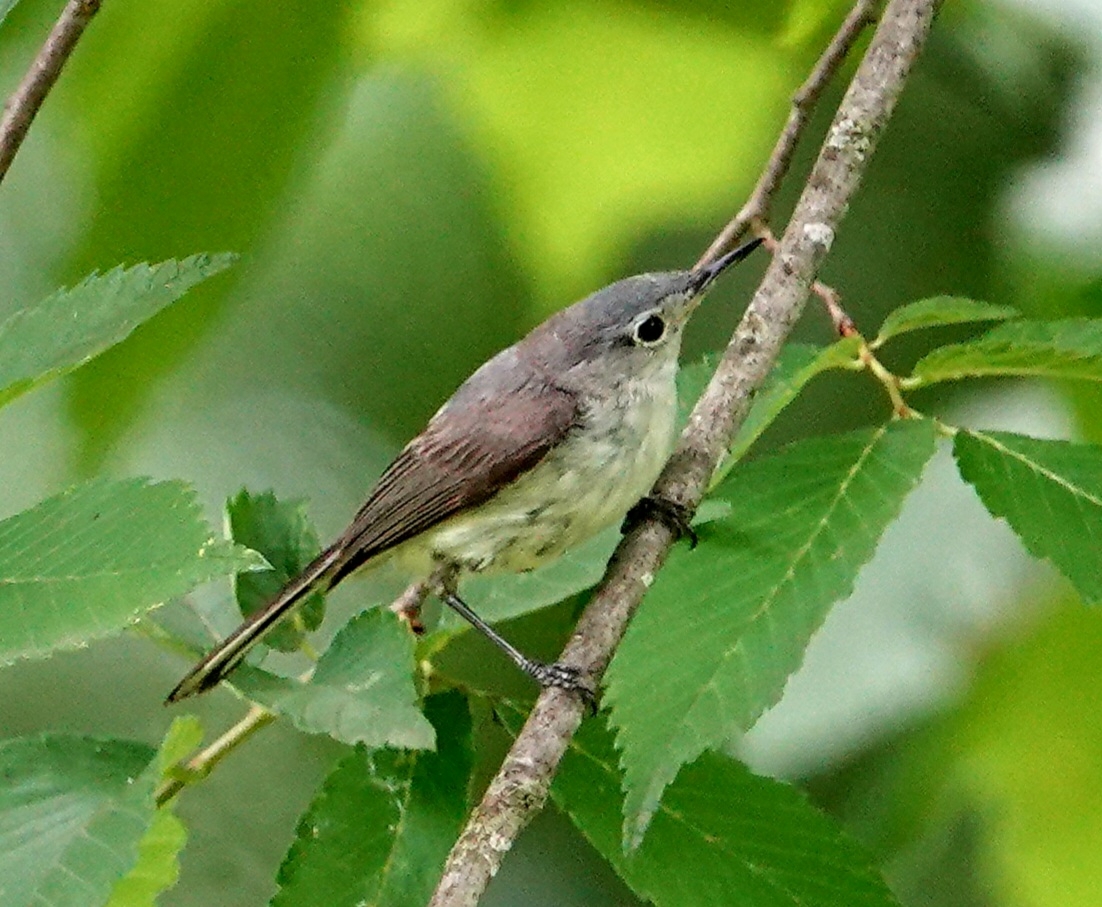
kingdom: Animalia
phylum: Chordata
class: Aves
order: Passeriformes
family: Polioptilidae
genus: Polioptila
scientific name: Polioptila caerulea
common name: Blue-gray gnatcatcher
